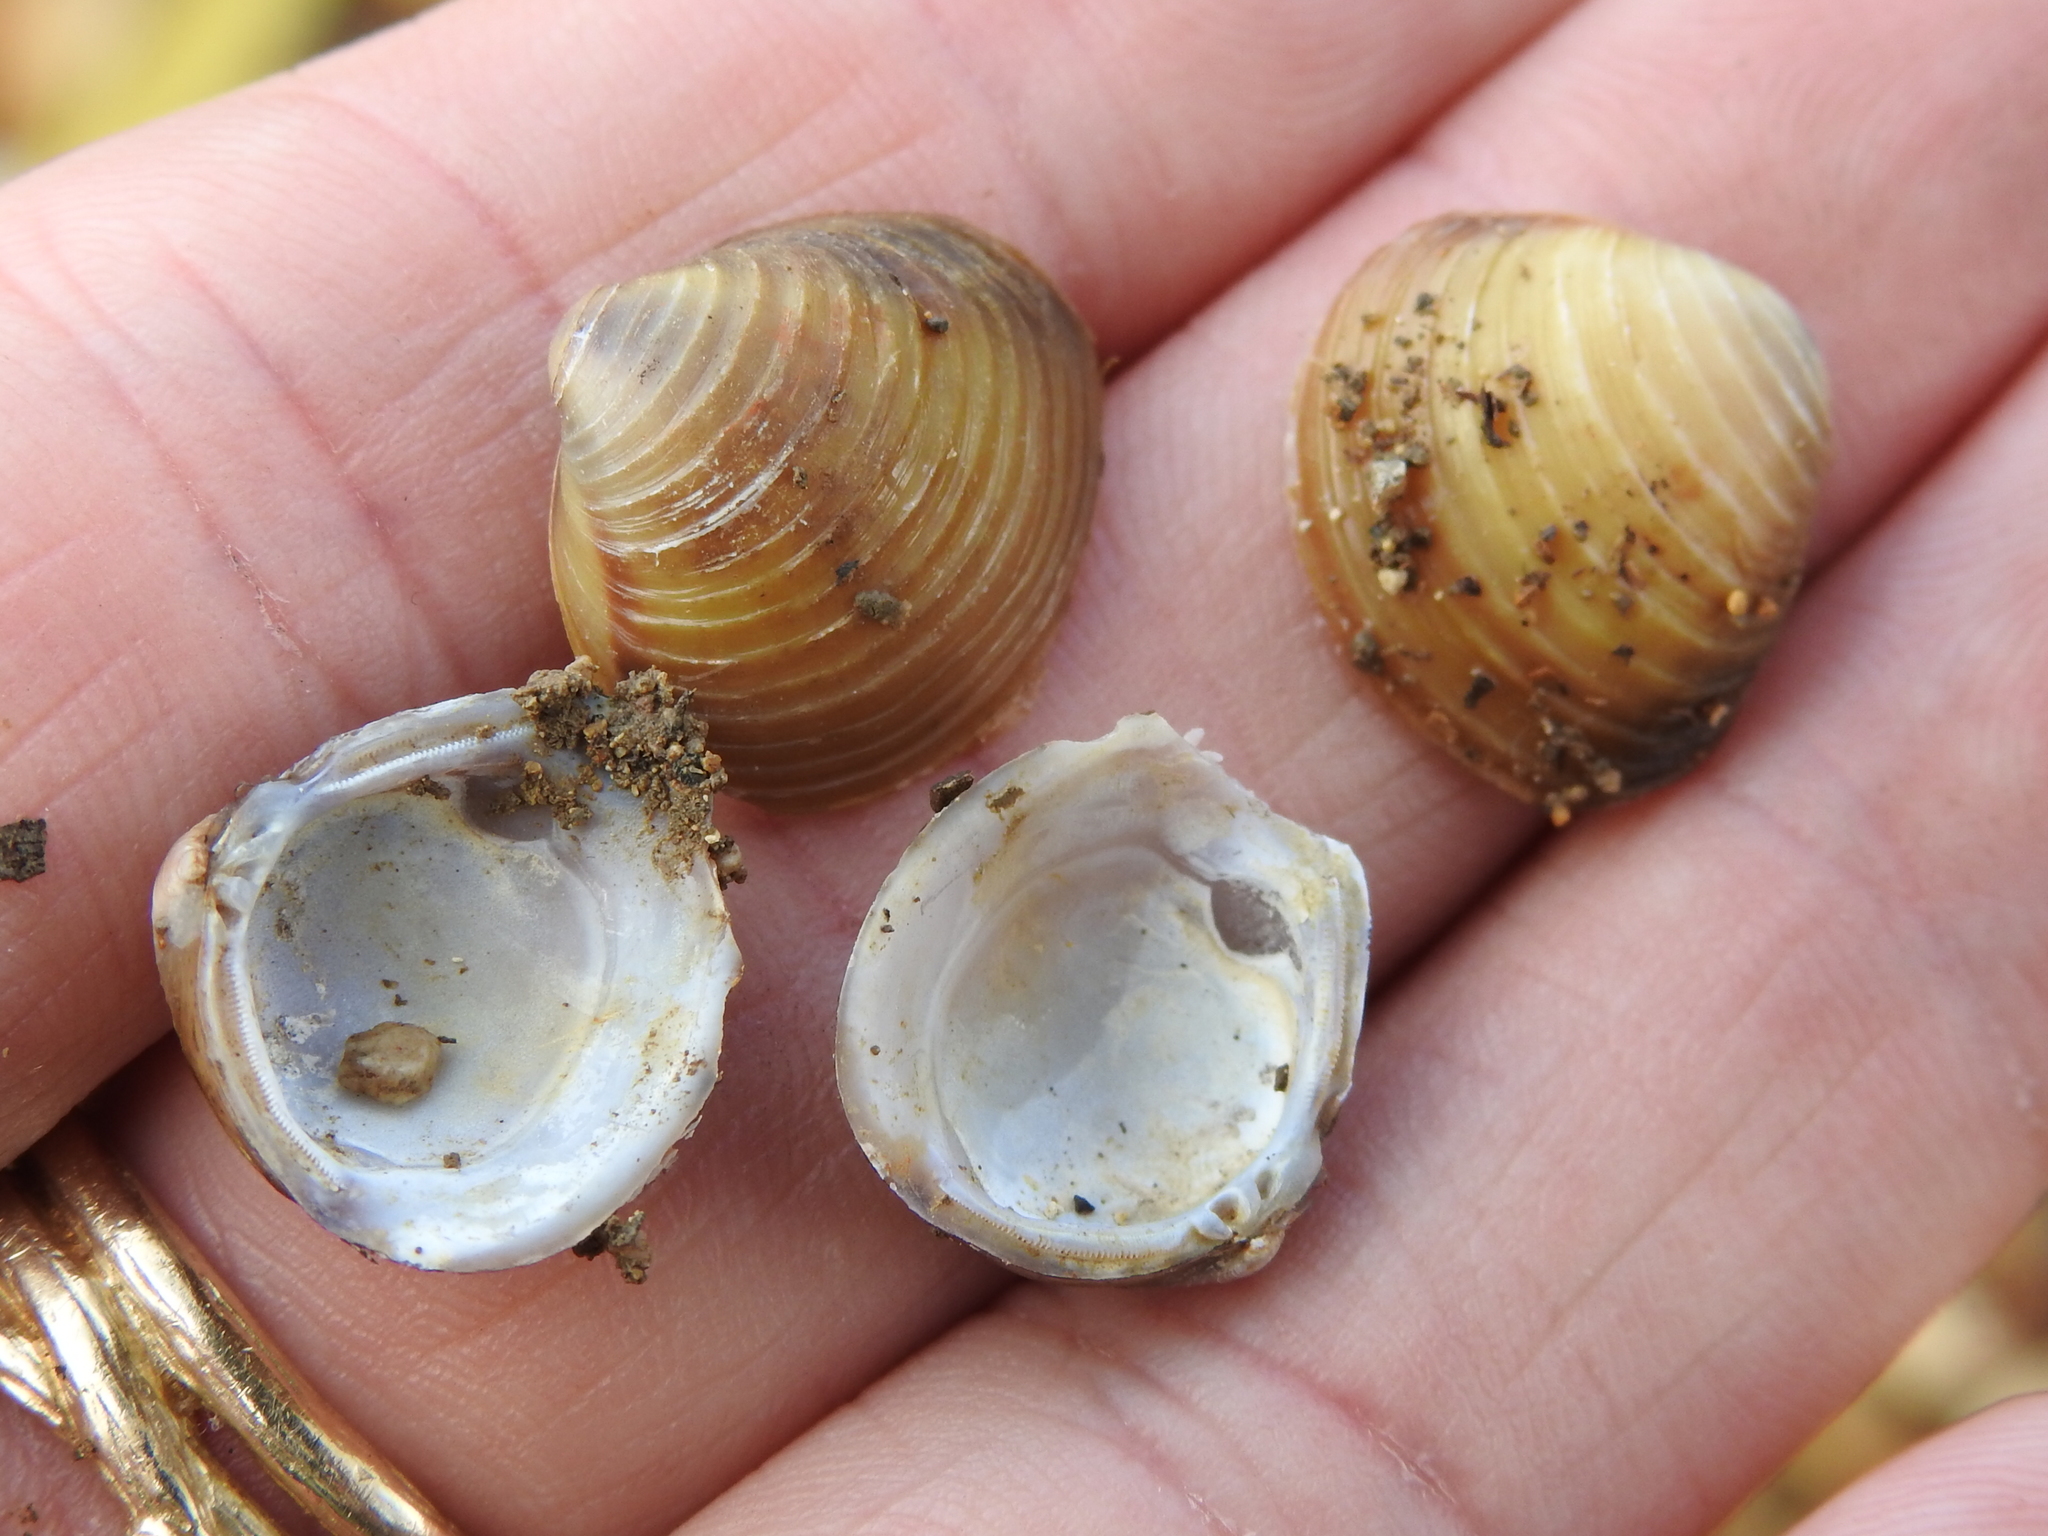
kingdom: Animalia
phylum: Mollusca
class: Bivalvia
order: Venerida
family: Cyrenidae
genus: Corbicula
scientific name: Corbicula fluminea
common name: Asian clam
